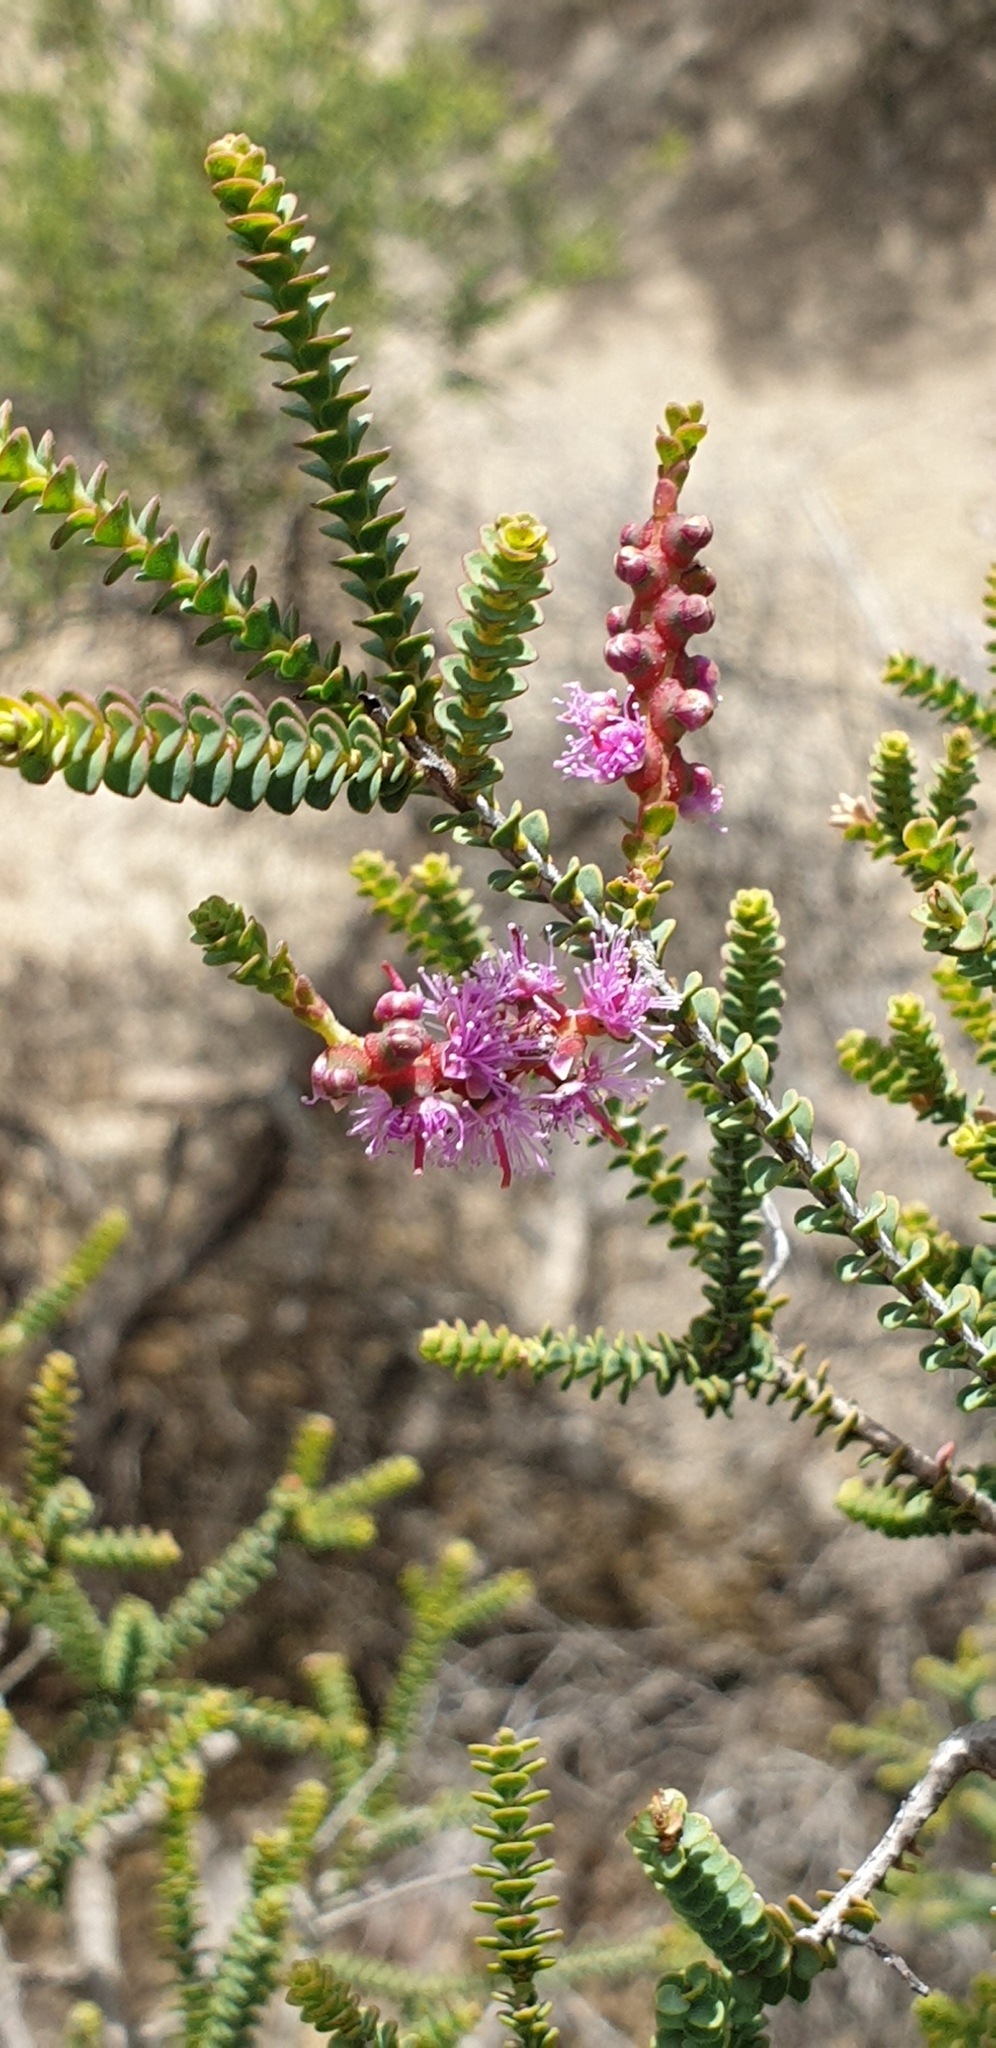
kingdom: Plantae
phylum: Tracheophyta
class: Magnoliopsida
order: Myrtales
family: Myrtaceae
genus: Melaleuca
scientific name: Melaleuca gibbosa
